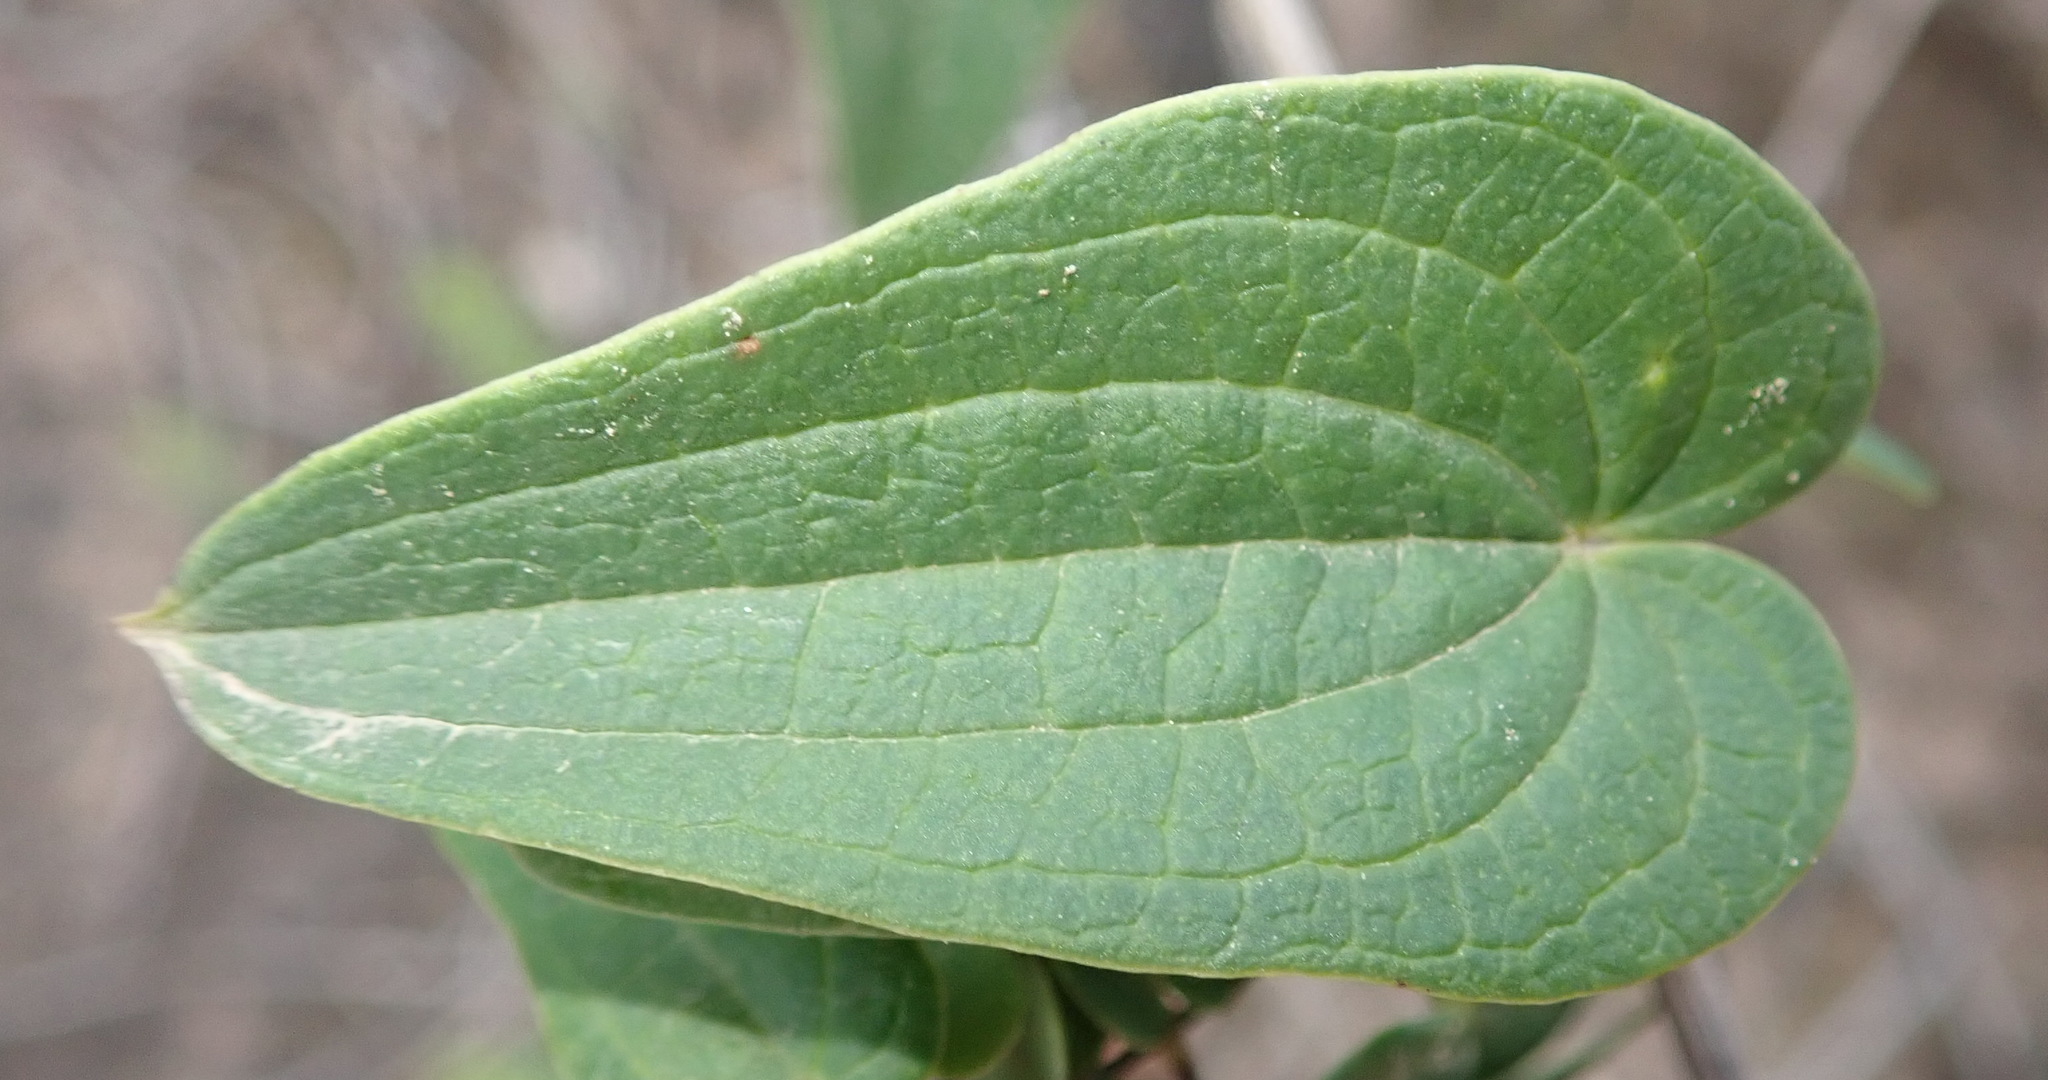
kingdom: Plantae
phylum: Tracheophyta
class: Liliopsida
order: Dioscoreales
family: Dioscoreaceae
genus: Dioscorea
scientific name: Dioscorea burchellii
